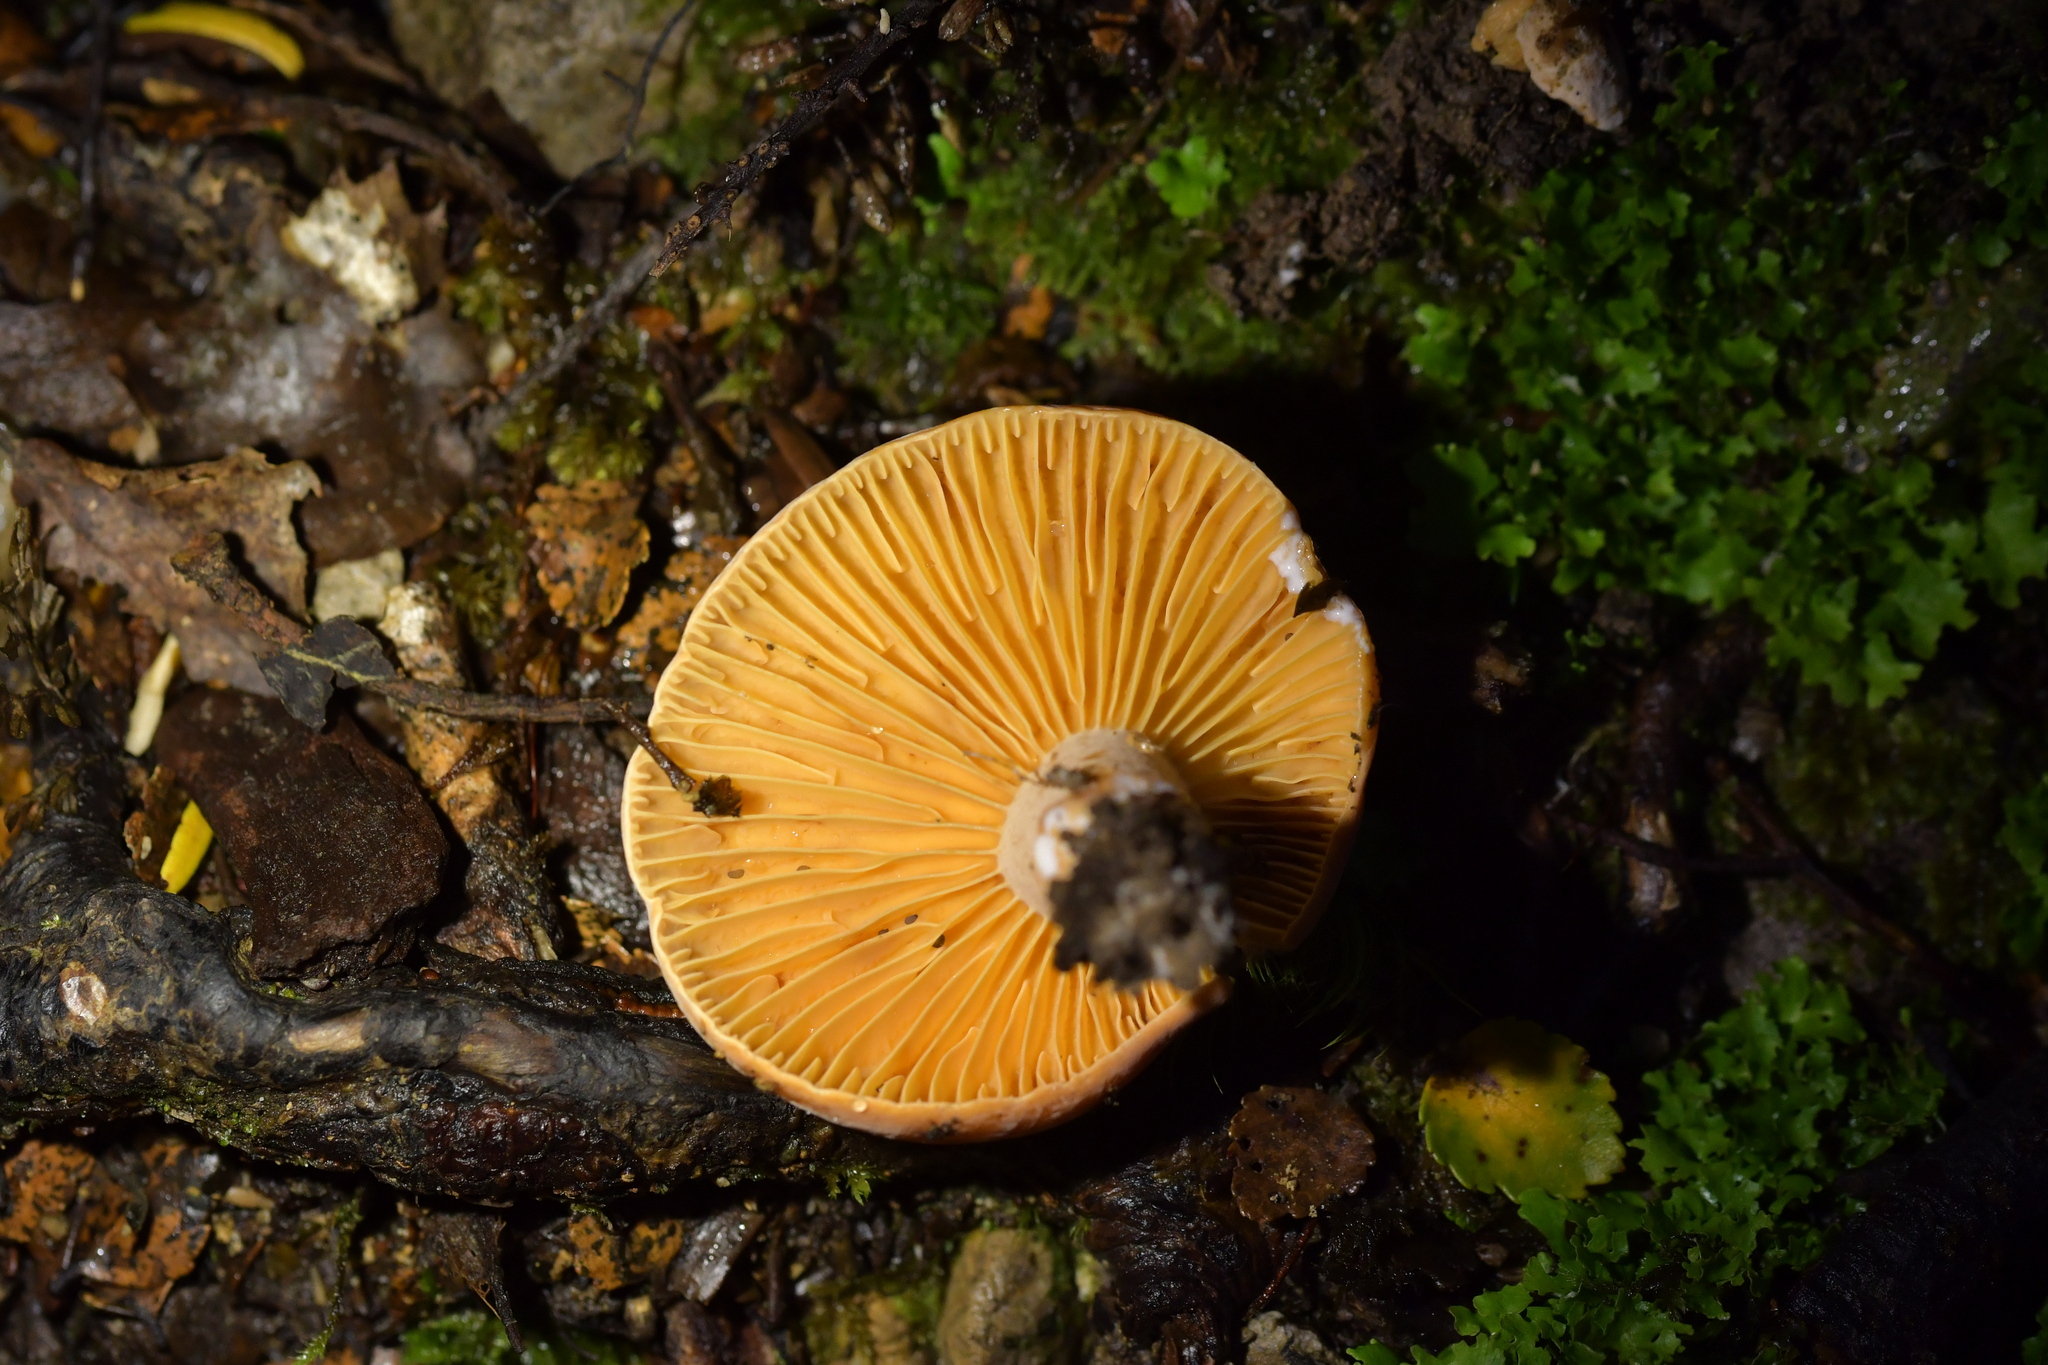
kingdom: Fungi
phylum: Basidiomycota
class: Agaricomycetes
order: Russulales
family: Russulaceae
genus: Lactifluus
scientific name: Lactifluus aurantioruber
